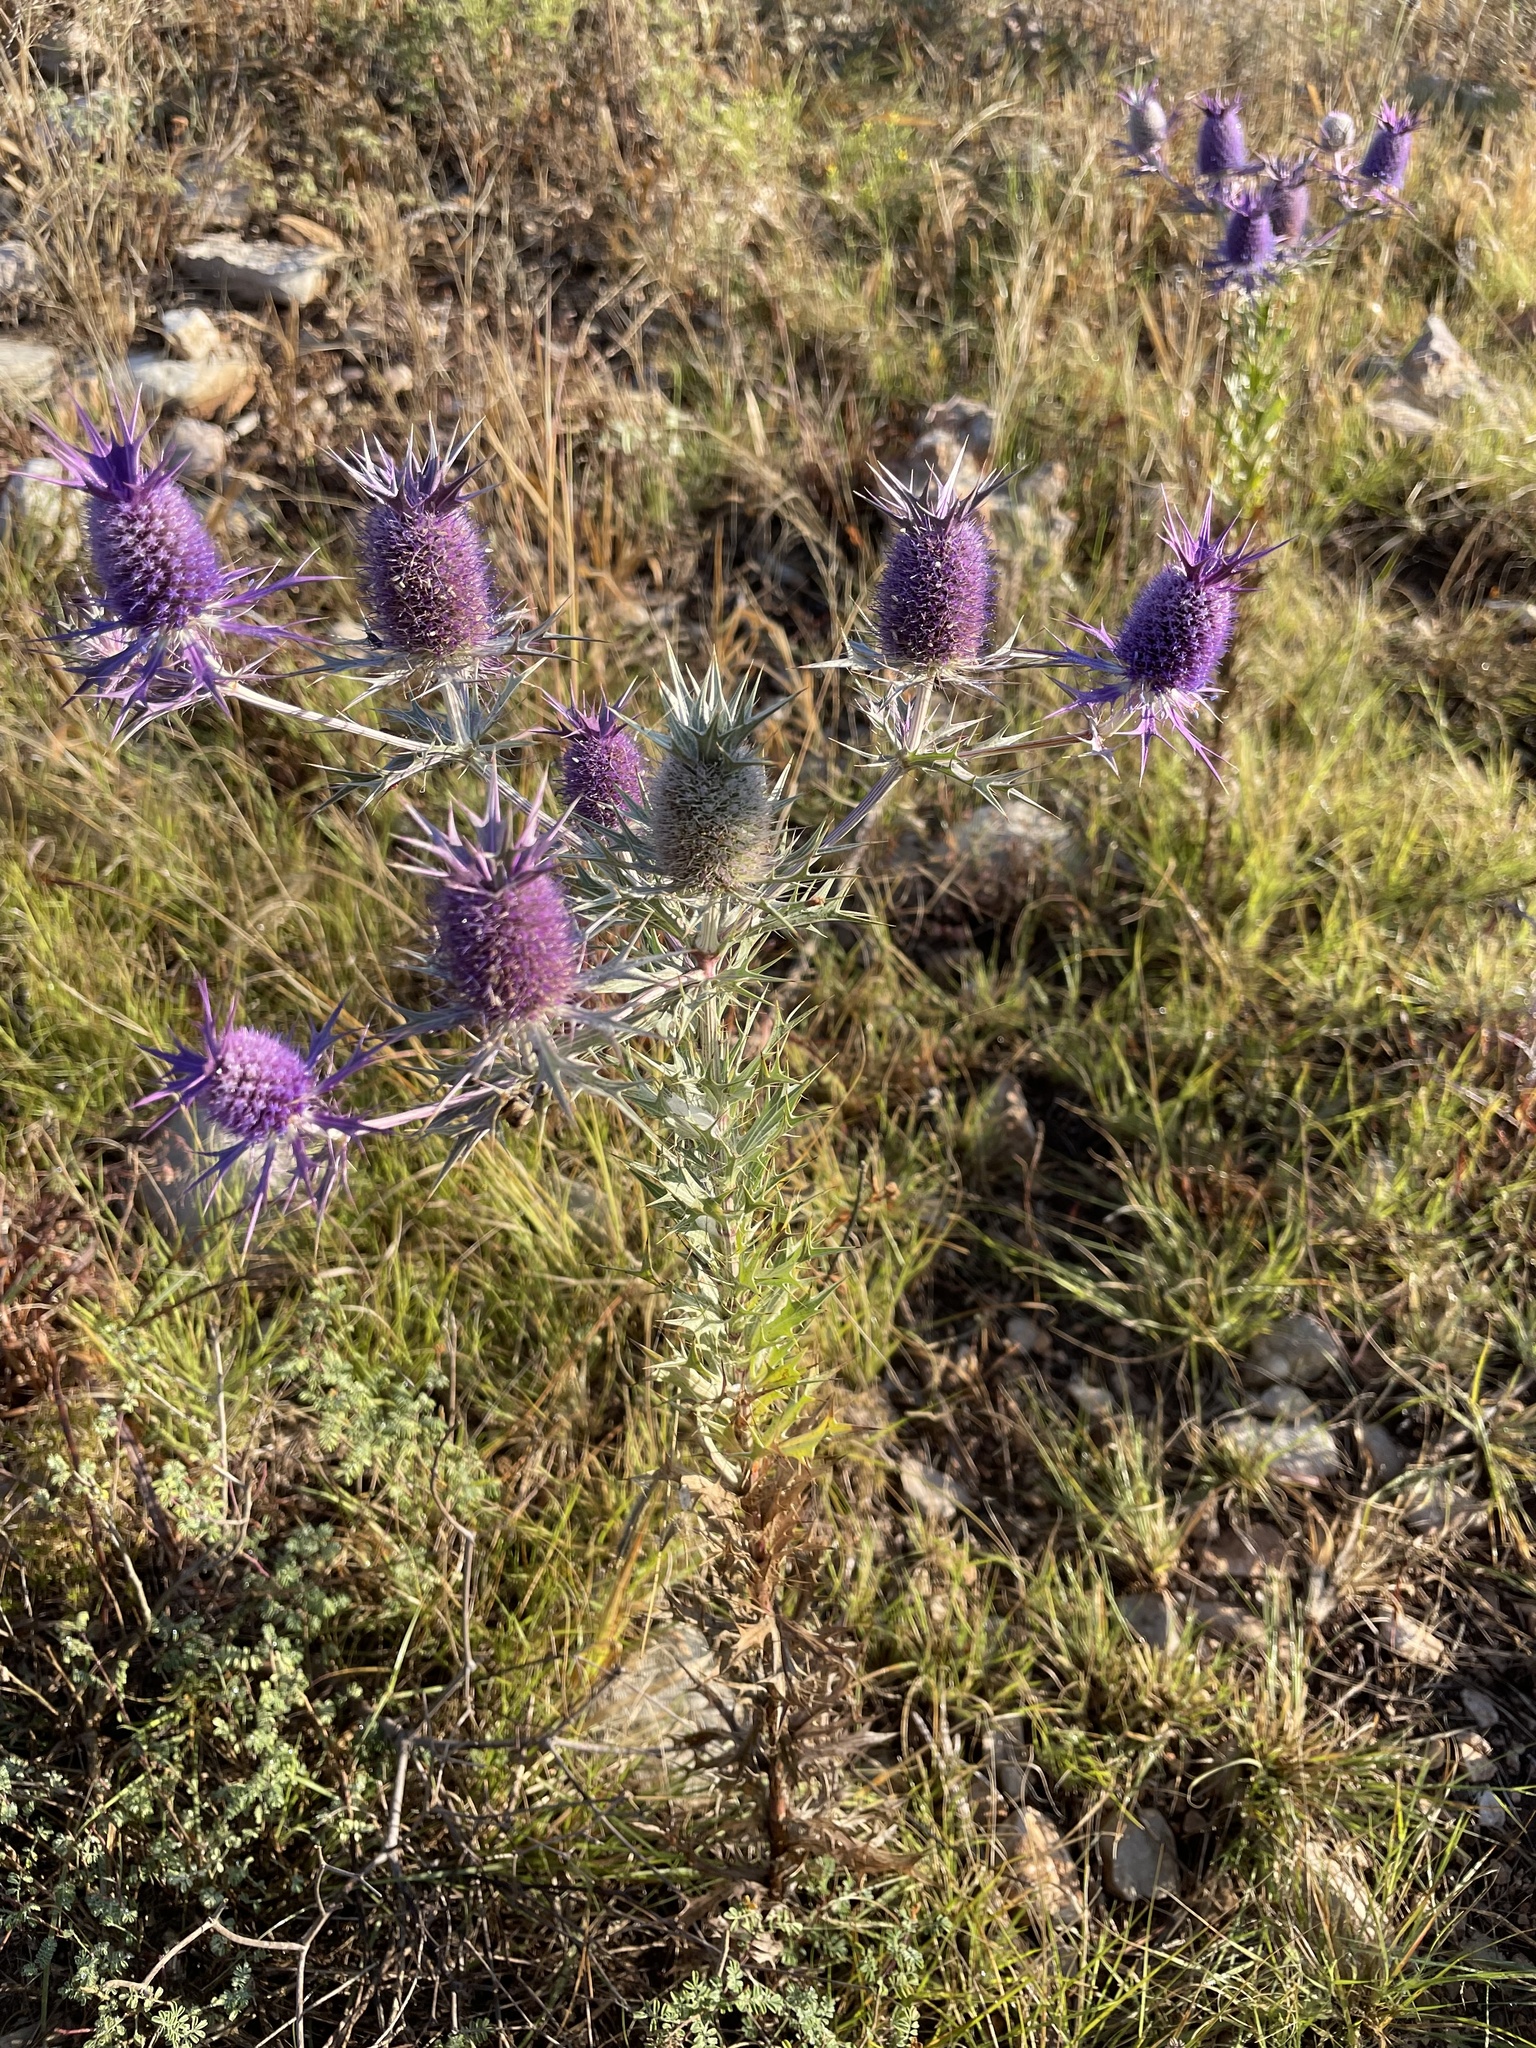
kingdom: Plantae
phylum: Tracheophyta
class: Magnoliopsida
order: Apiales
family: Apiaceae
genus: Eryngium
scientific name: Eryngium leavenworthii
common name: Leavenworth's eryngo
